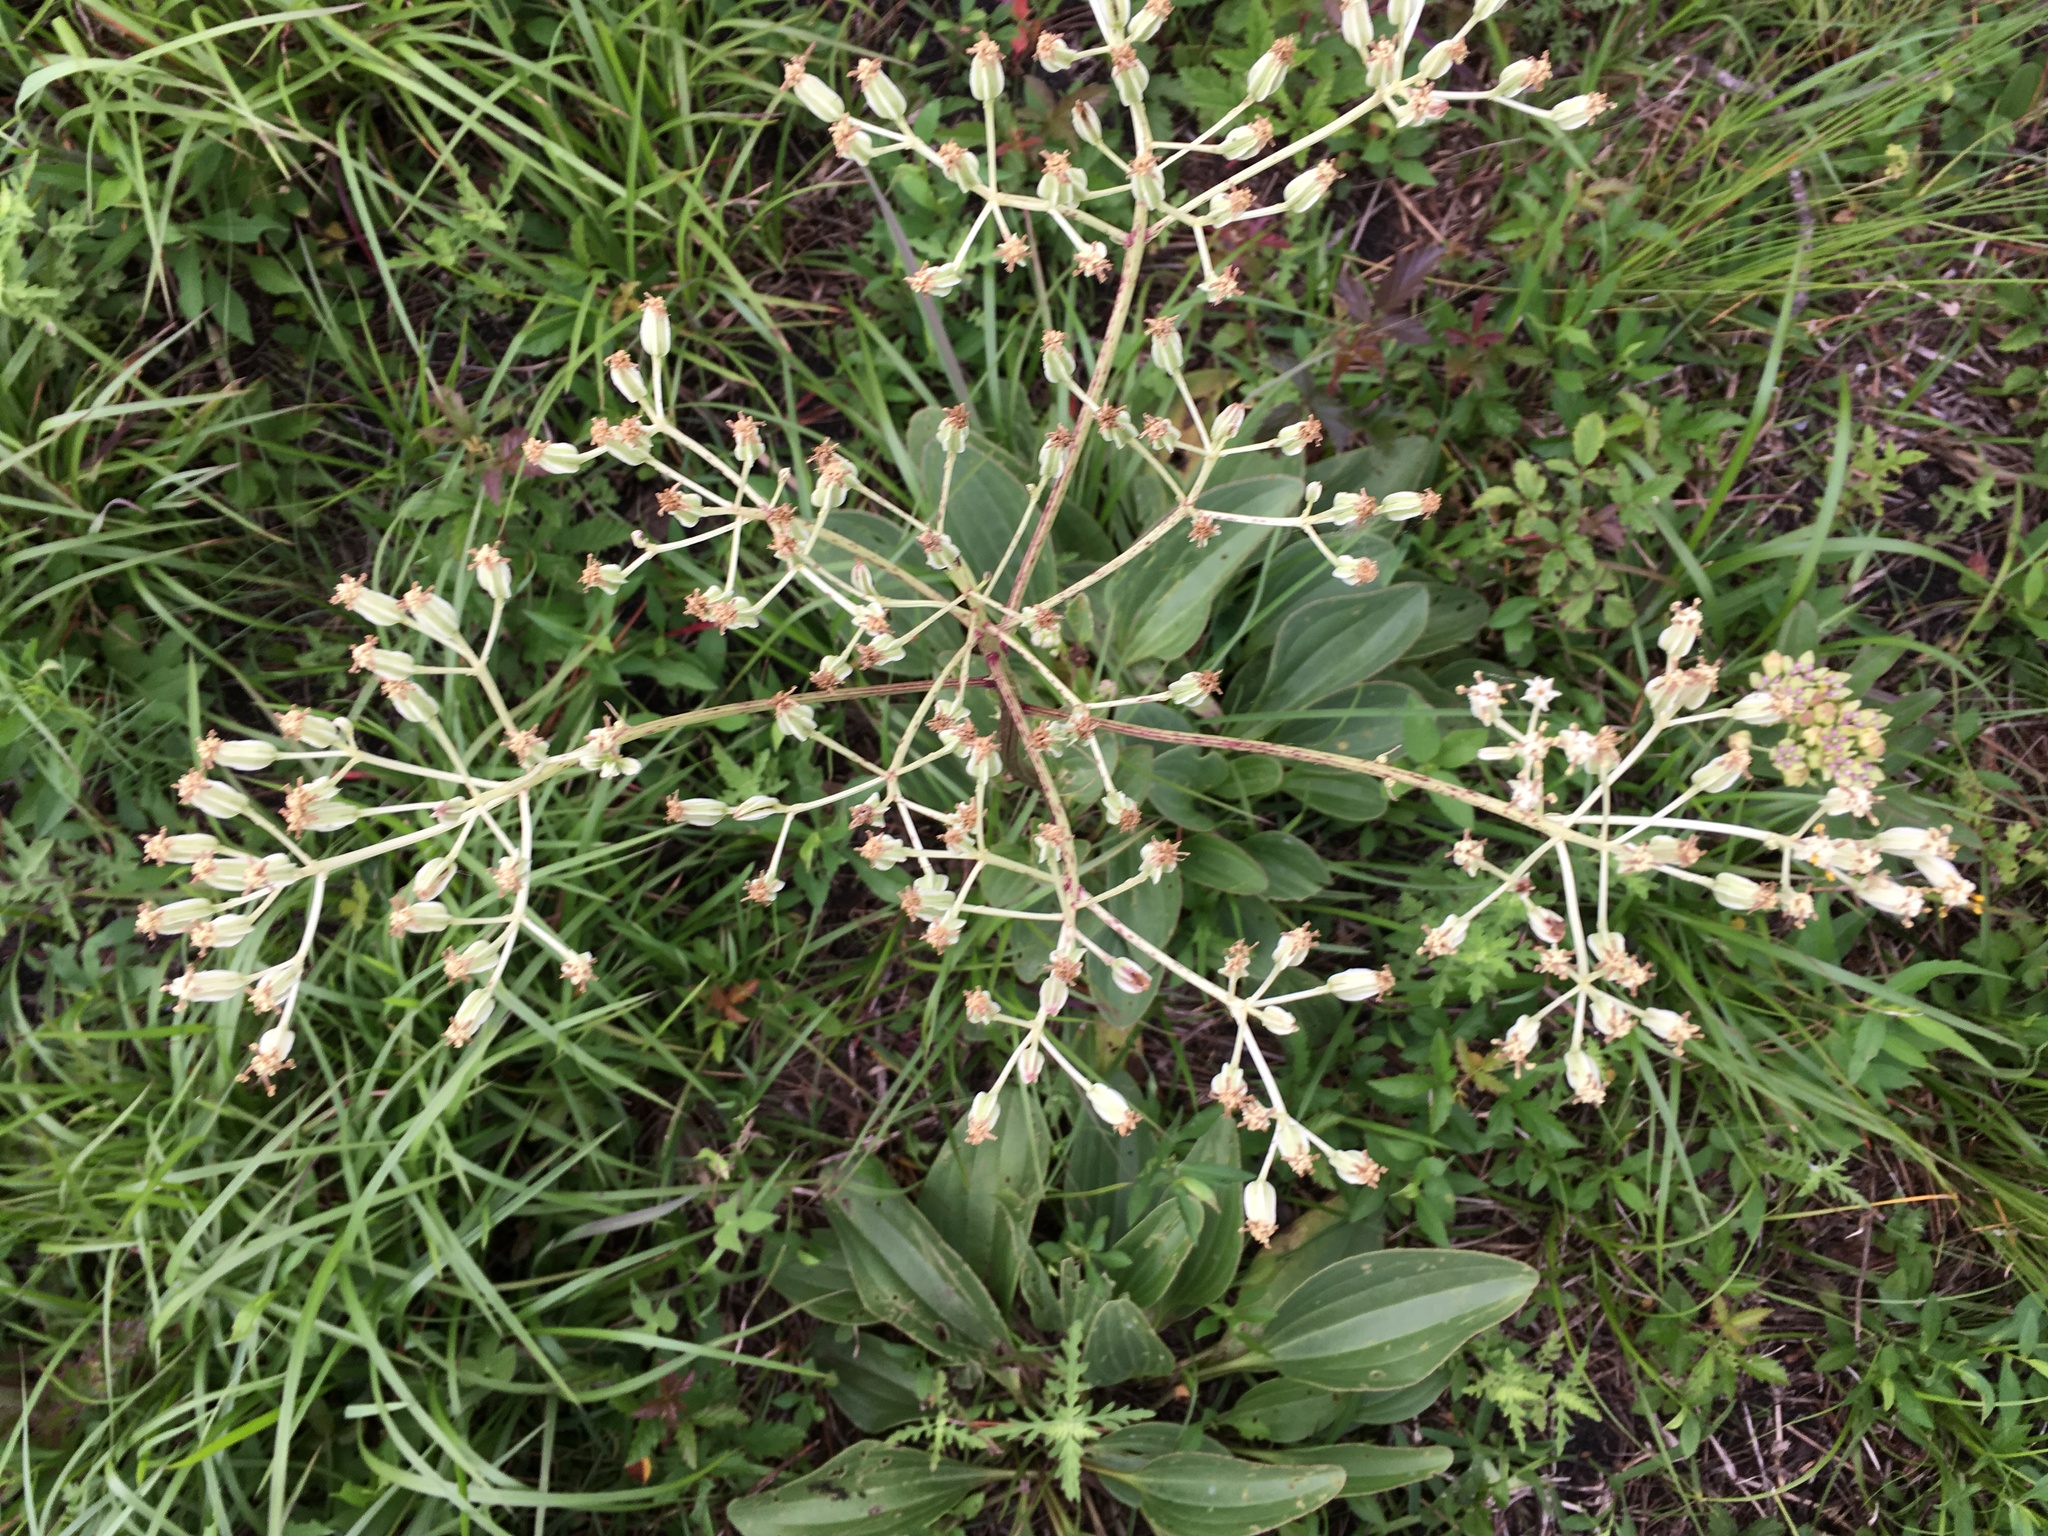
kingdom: Plantae
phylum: Tracheophyta
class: Magnoliopsida
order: Asterales
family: Asteraceae
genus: Arnoglossum
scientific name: Arnoglossum plantagineum
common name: Groove-stemmed indian-plantain
